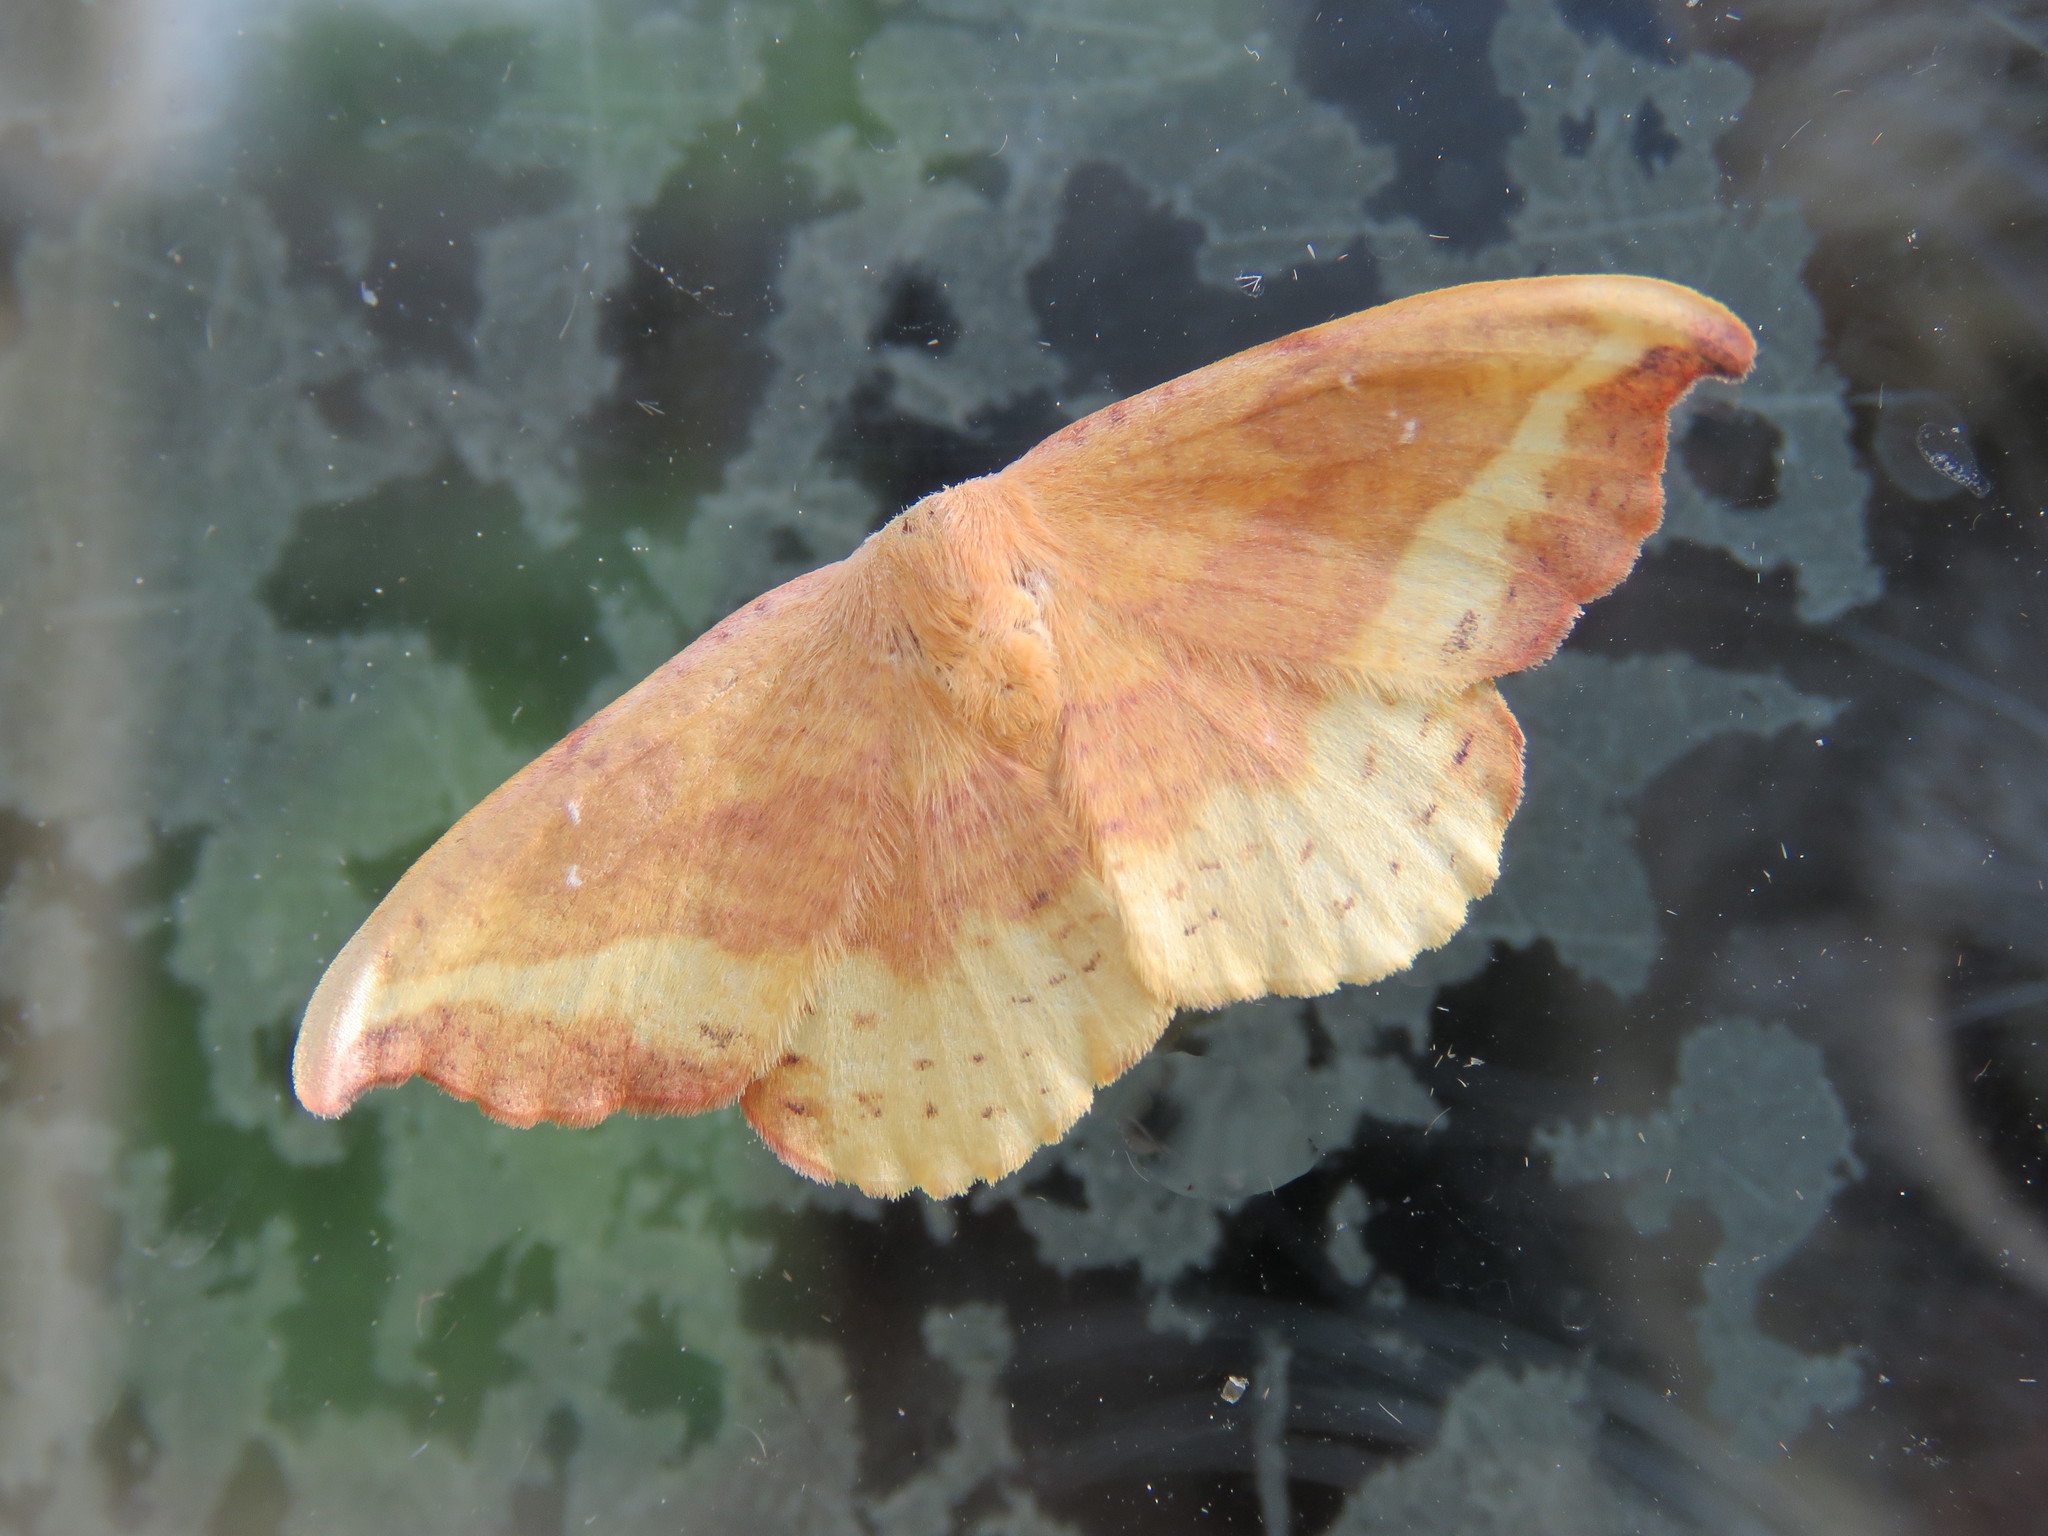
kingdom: Animalia
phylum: Arthropoda
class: Insecta
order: Lepidoptera
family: Drepanidae
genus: Oreta
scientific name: Oreta rosea
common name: Rose hooktip
